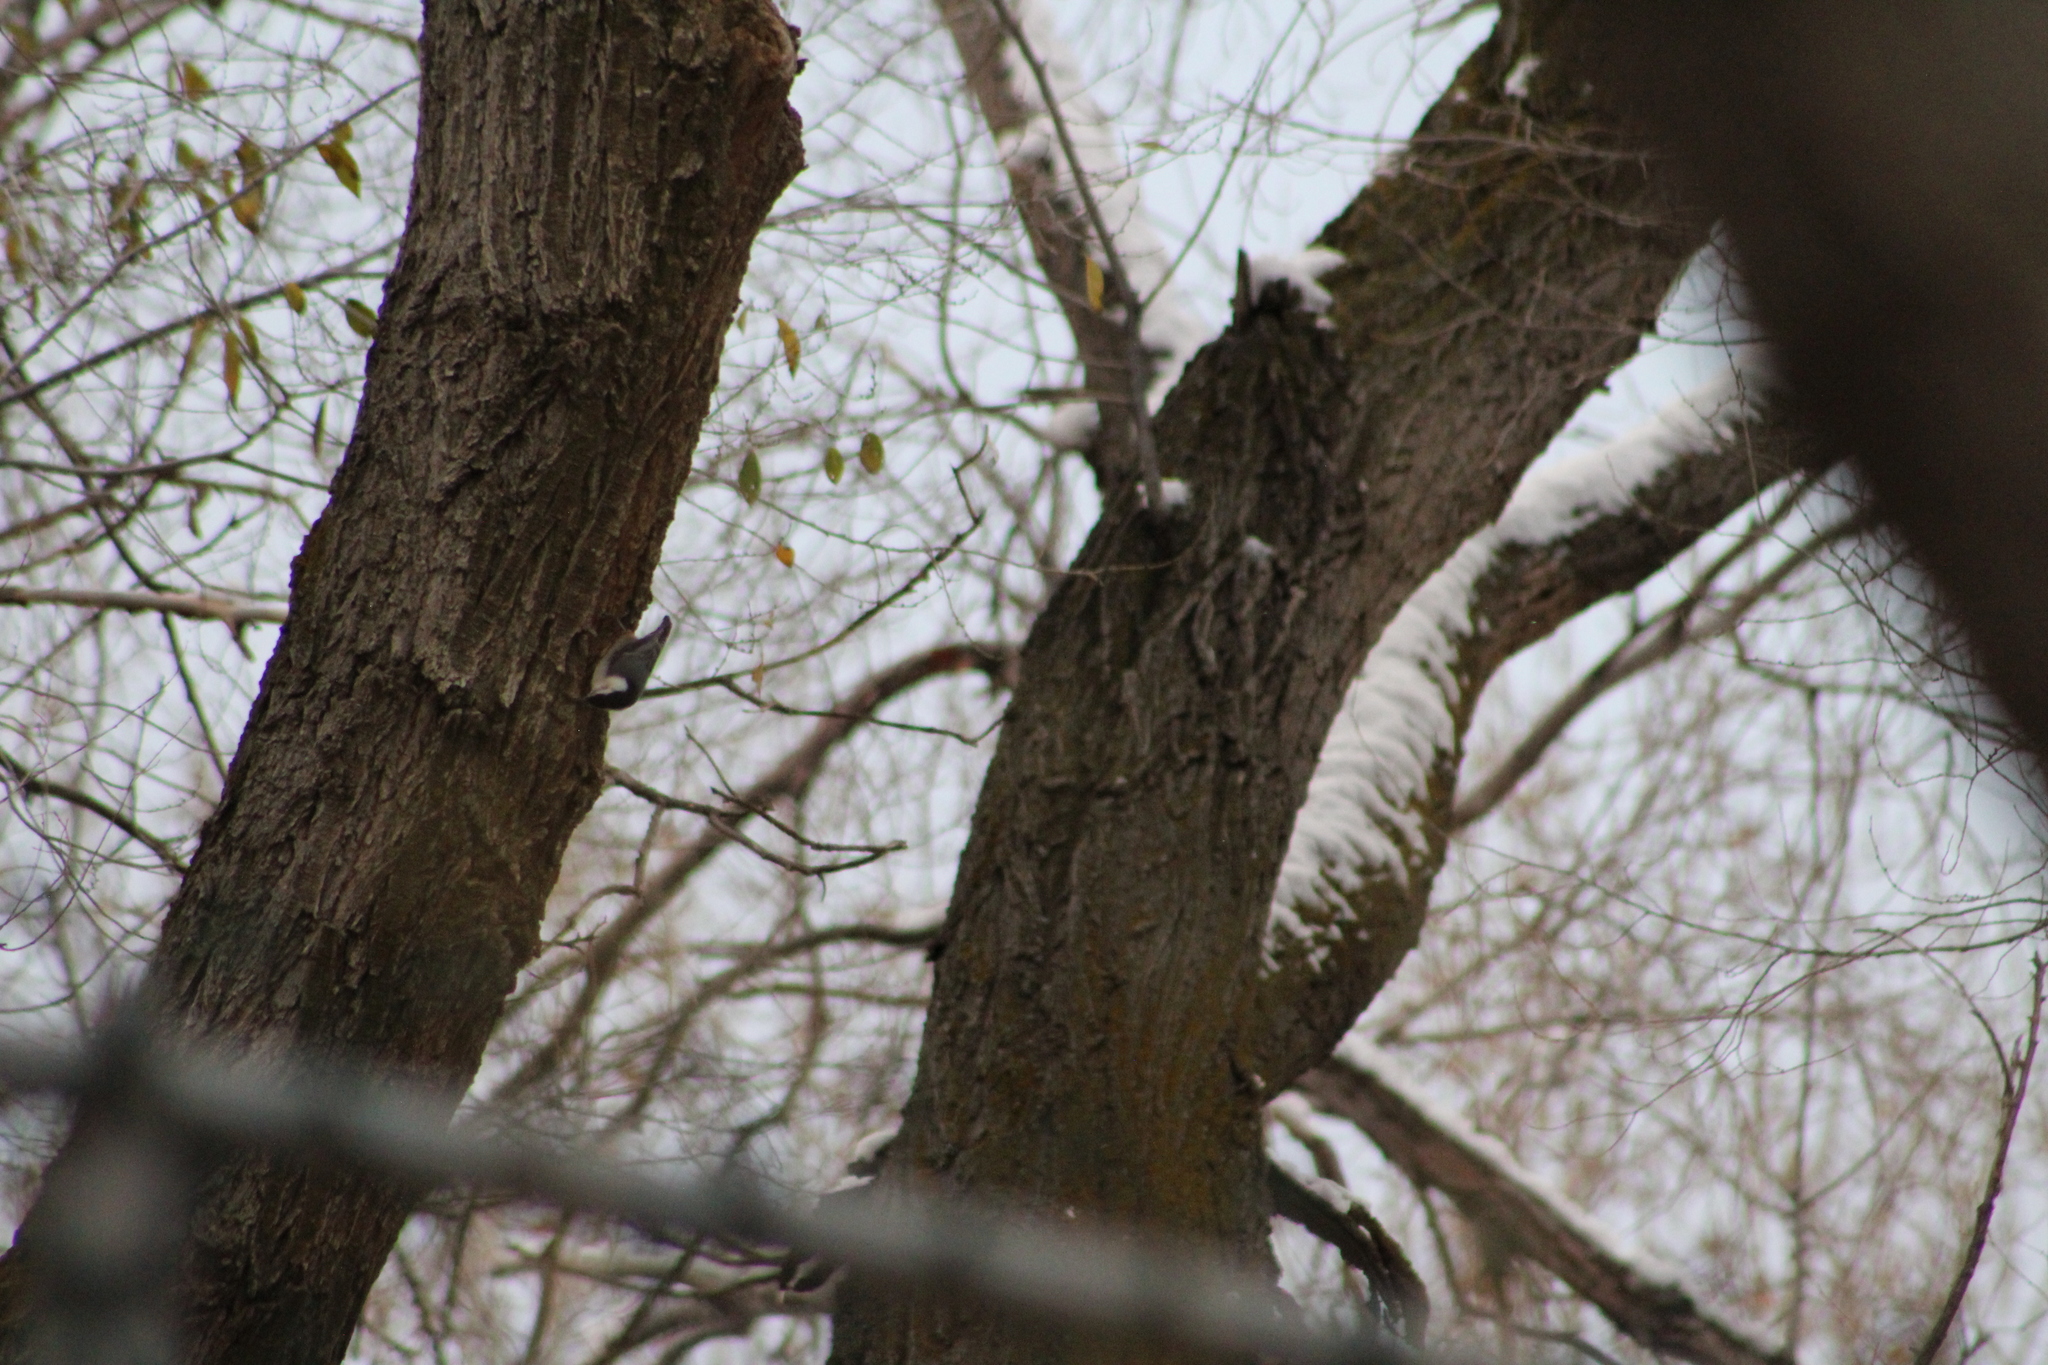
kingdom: Animalia
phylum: Chordata
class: Aves
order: Passeriformes
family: Sittidae
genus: Sitta
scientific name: Sitta carolinensis
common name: White-breasted nuthatch
